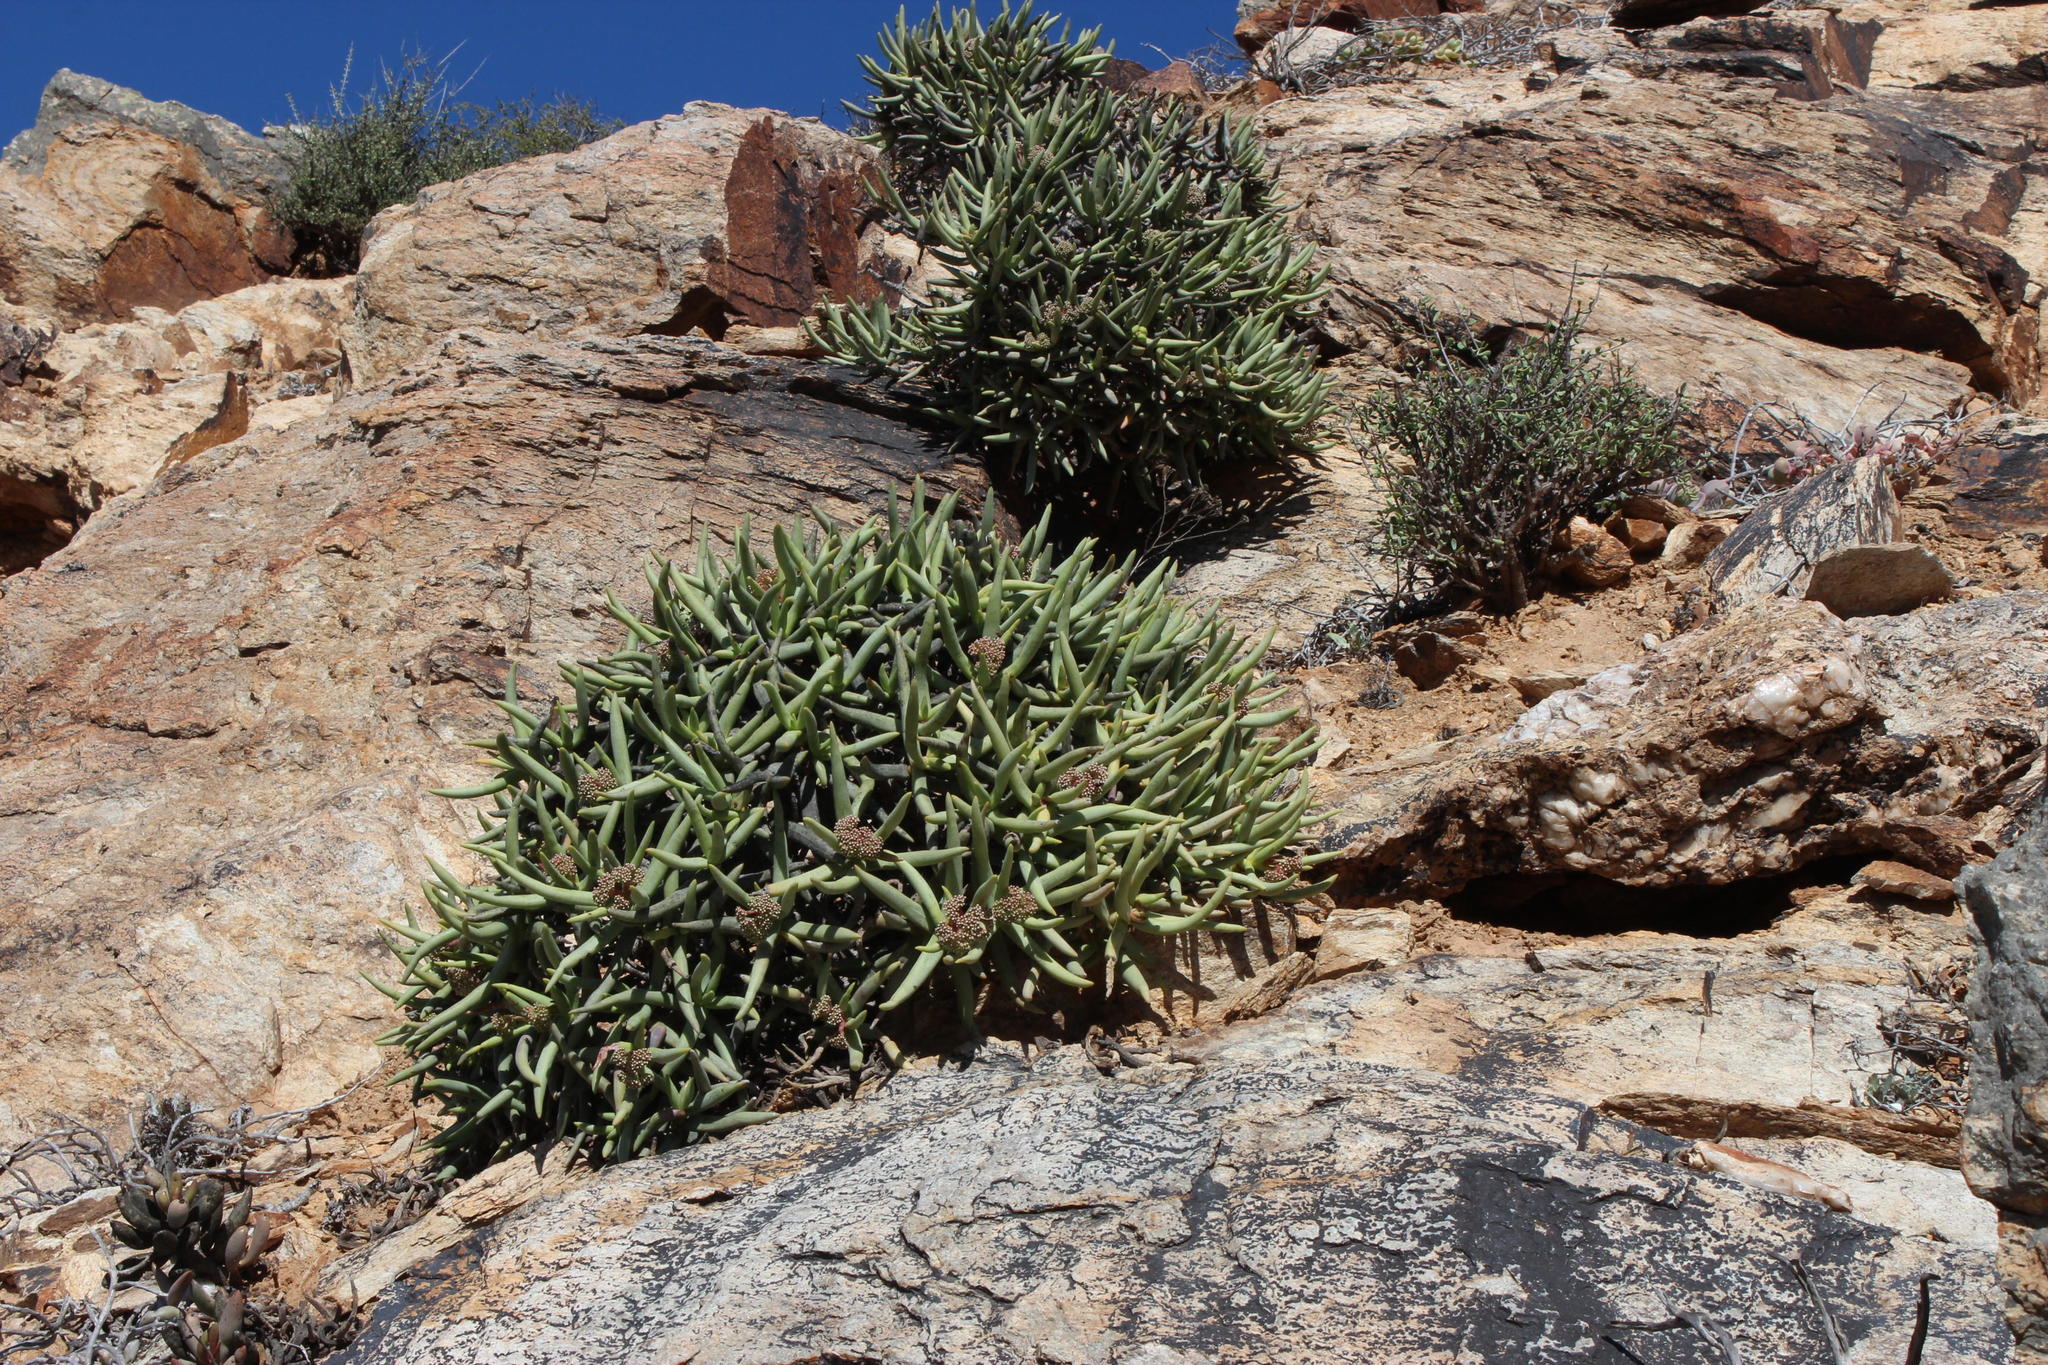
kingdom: Plantae
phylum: Tracheophyta
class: Magnoliopsida
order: Saxifragales
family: Crassulaceae
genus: Crassula
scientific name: Crassula macowaniana
